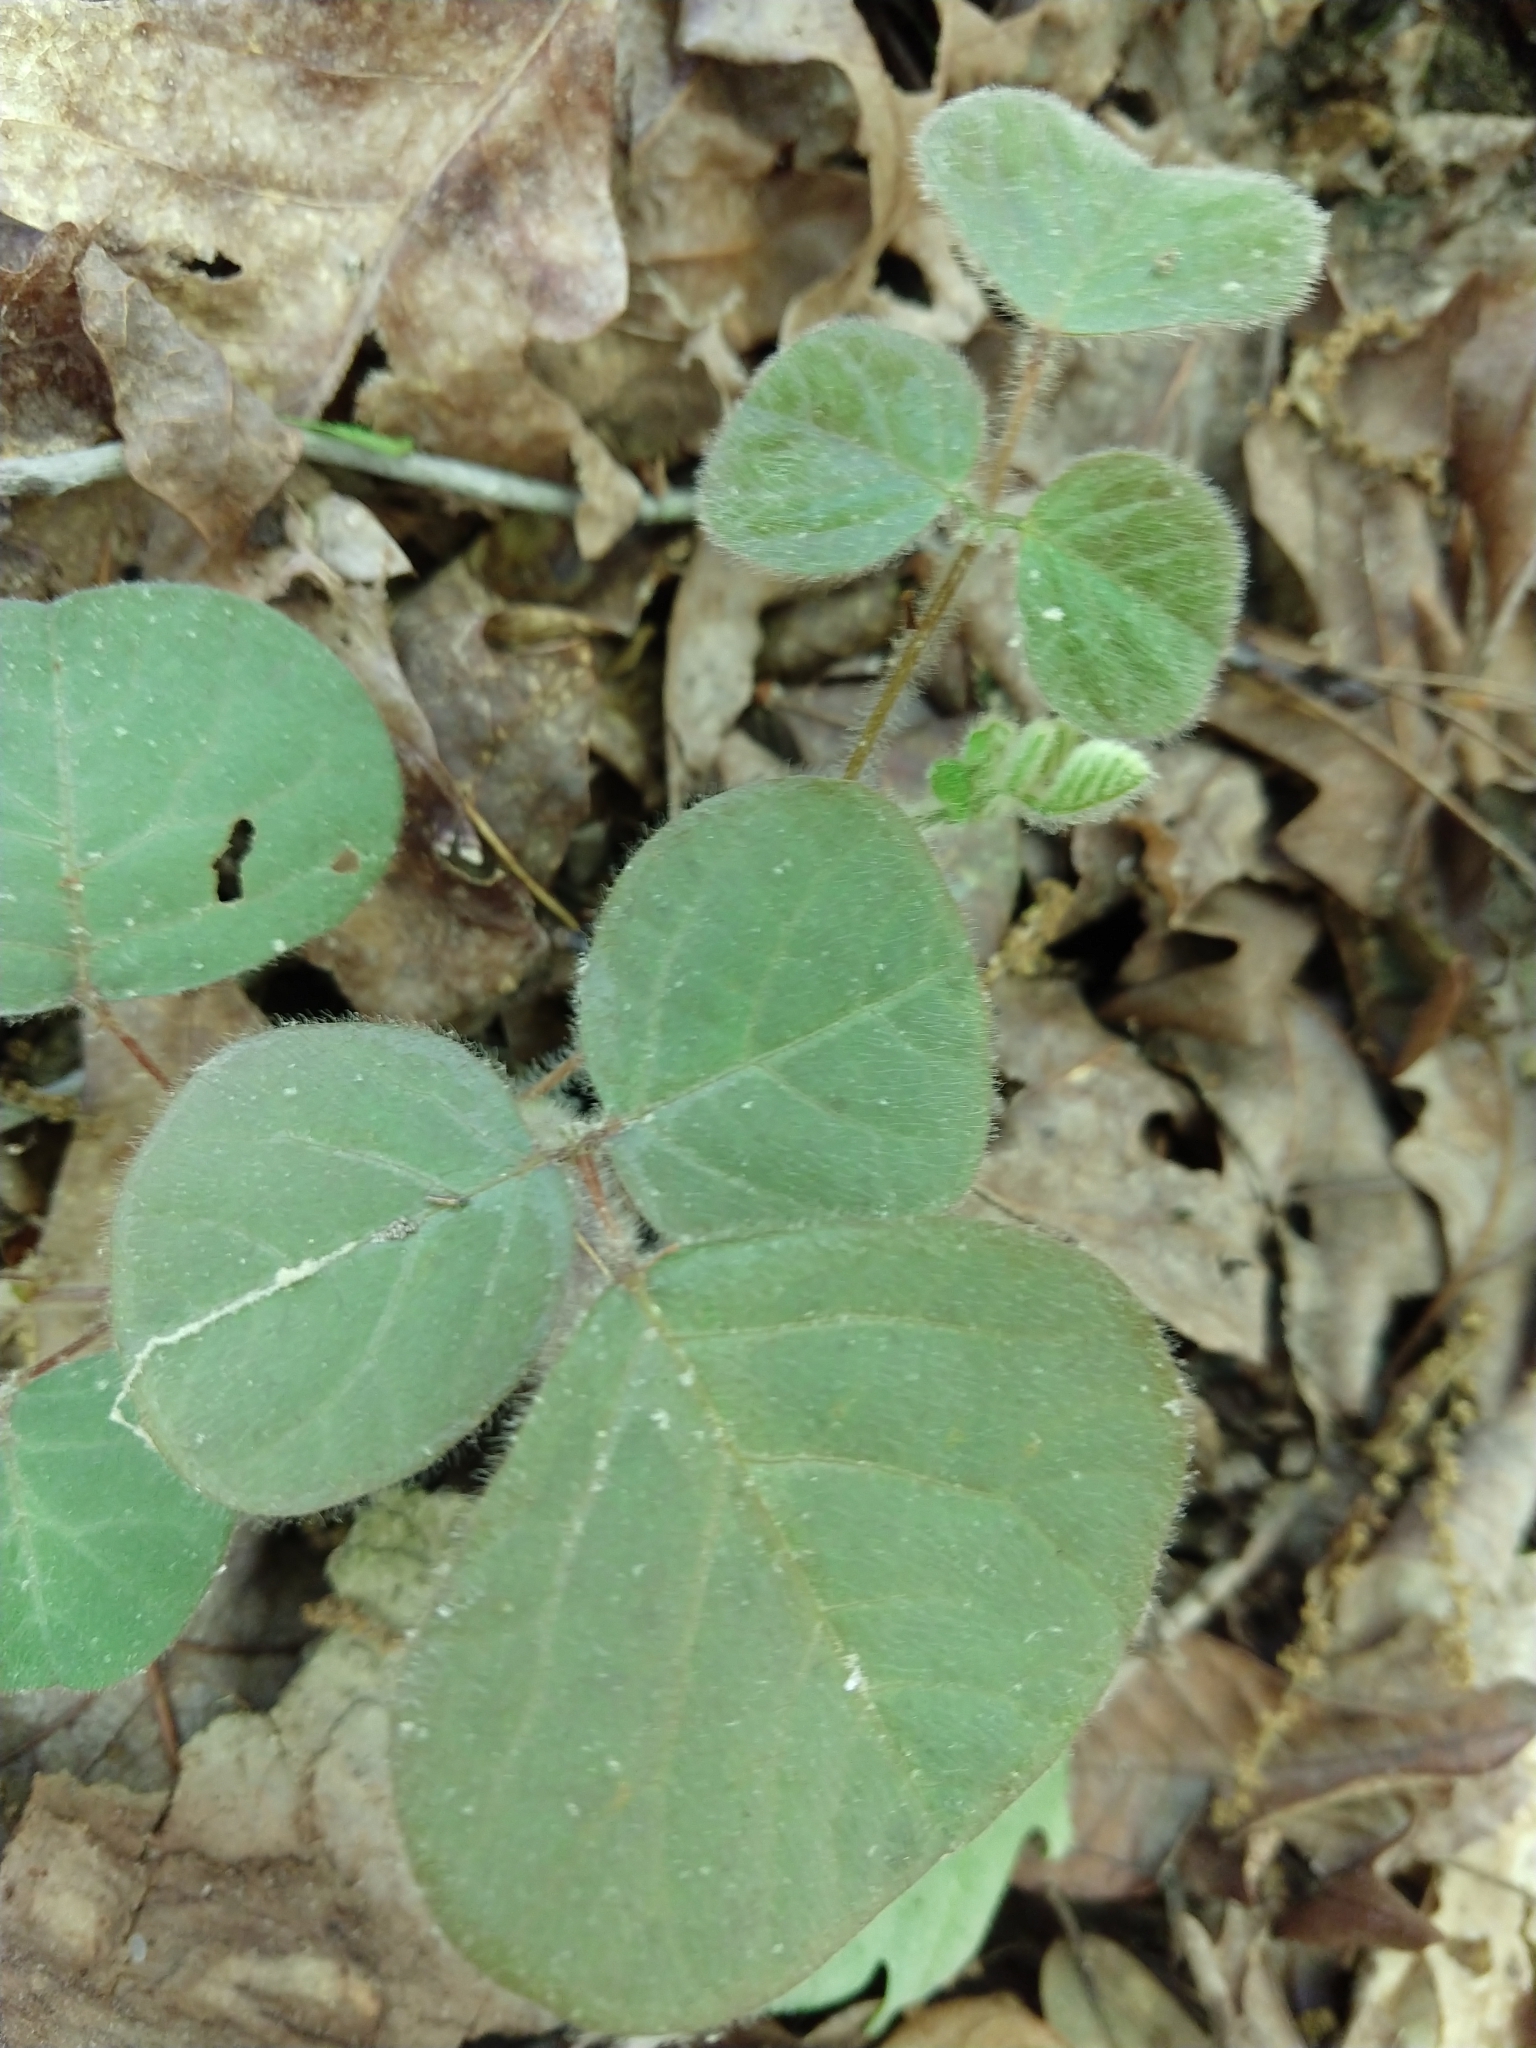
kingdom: Plantae
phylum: Tracheophyta
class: Magnoliopsida
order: Fabales
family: Fabaceae
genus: Desmodium
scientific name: Desmodium rotundifolium
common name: Dollarleaf
